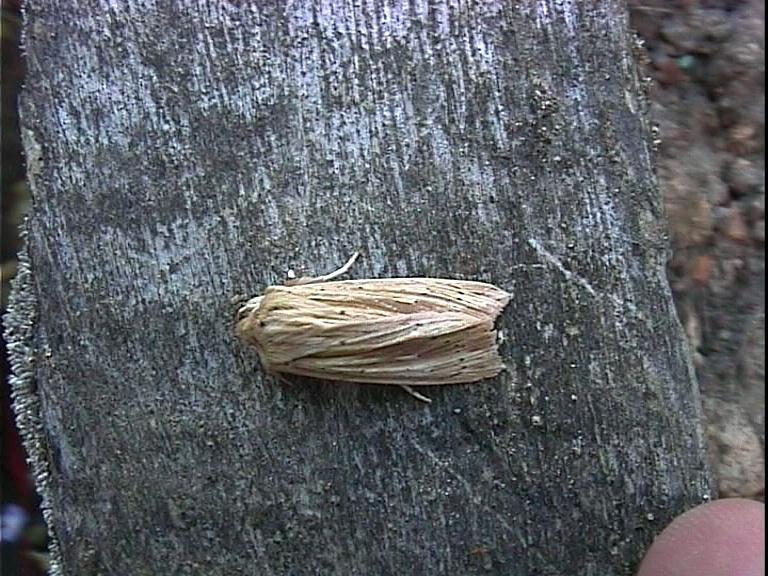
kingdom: Animalia
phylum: Arthropoda
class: Insecta
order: Lepidoptera
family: Noctuidae
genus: Ichneutica
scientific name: Ichneutica semivittata
